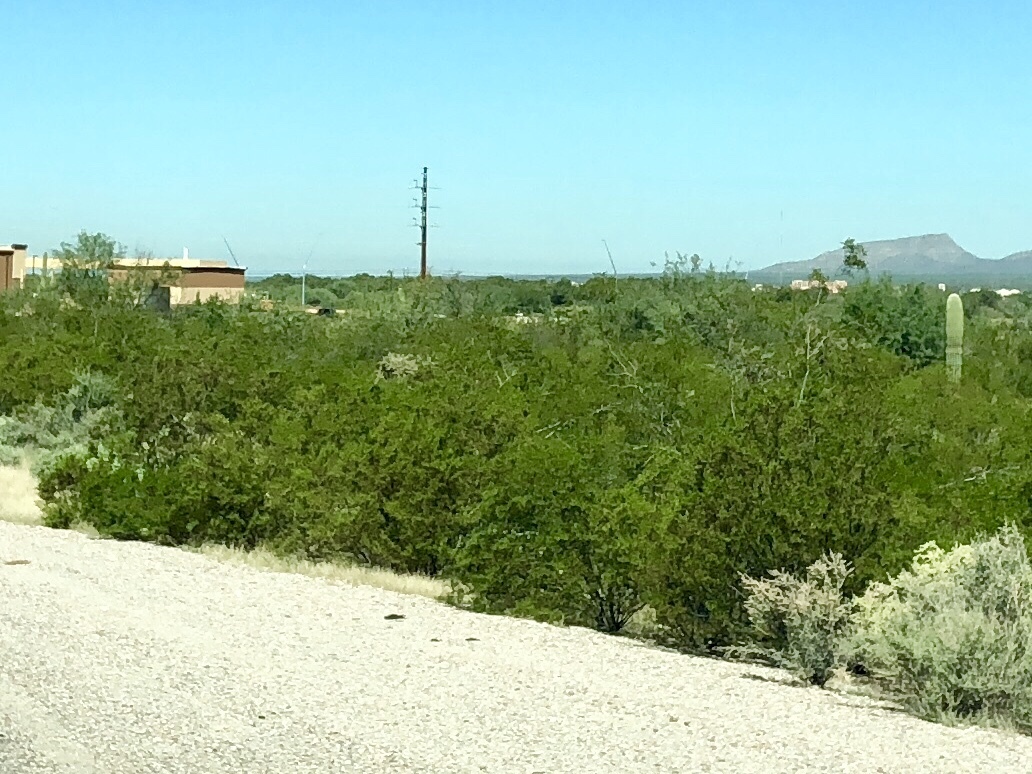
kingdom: Plantae
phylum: Tracheophyta
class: Magnoliopsida
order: Zygophyllales
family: Zygophyllaceae
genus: Larrea
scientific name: Larrea tridentata
